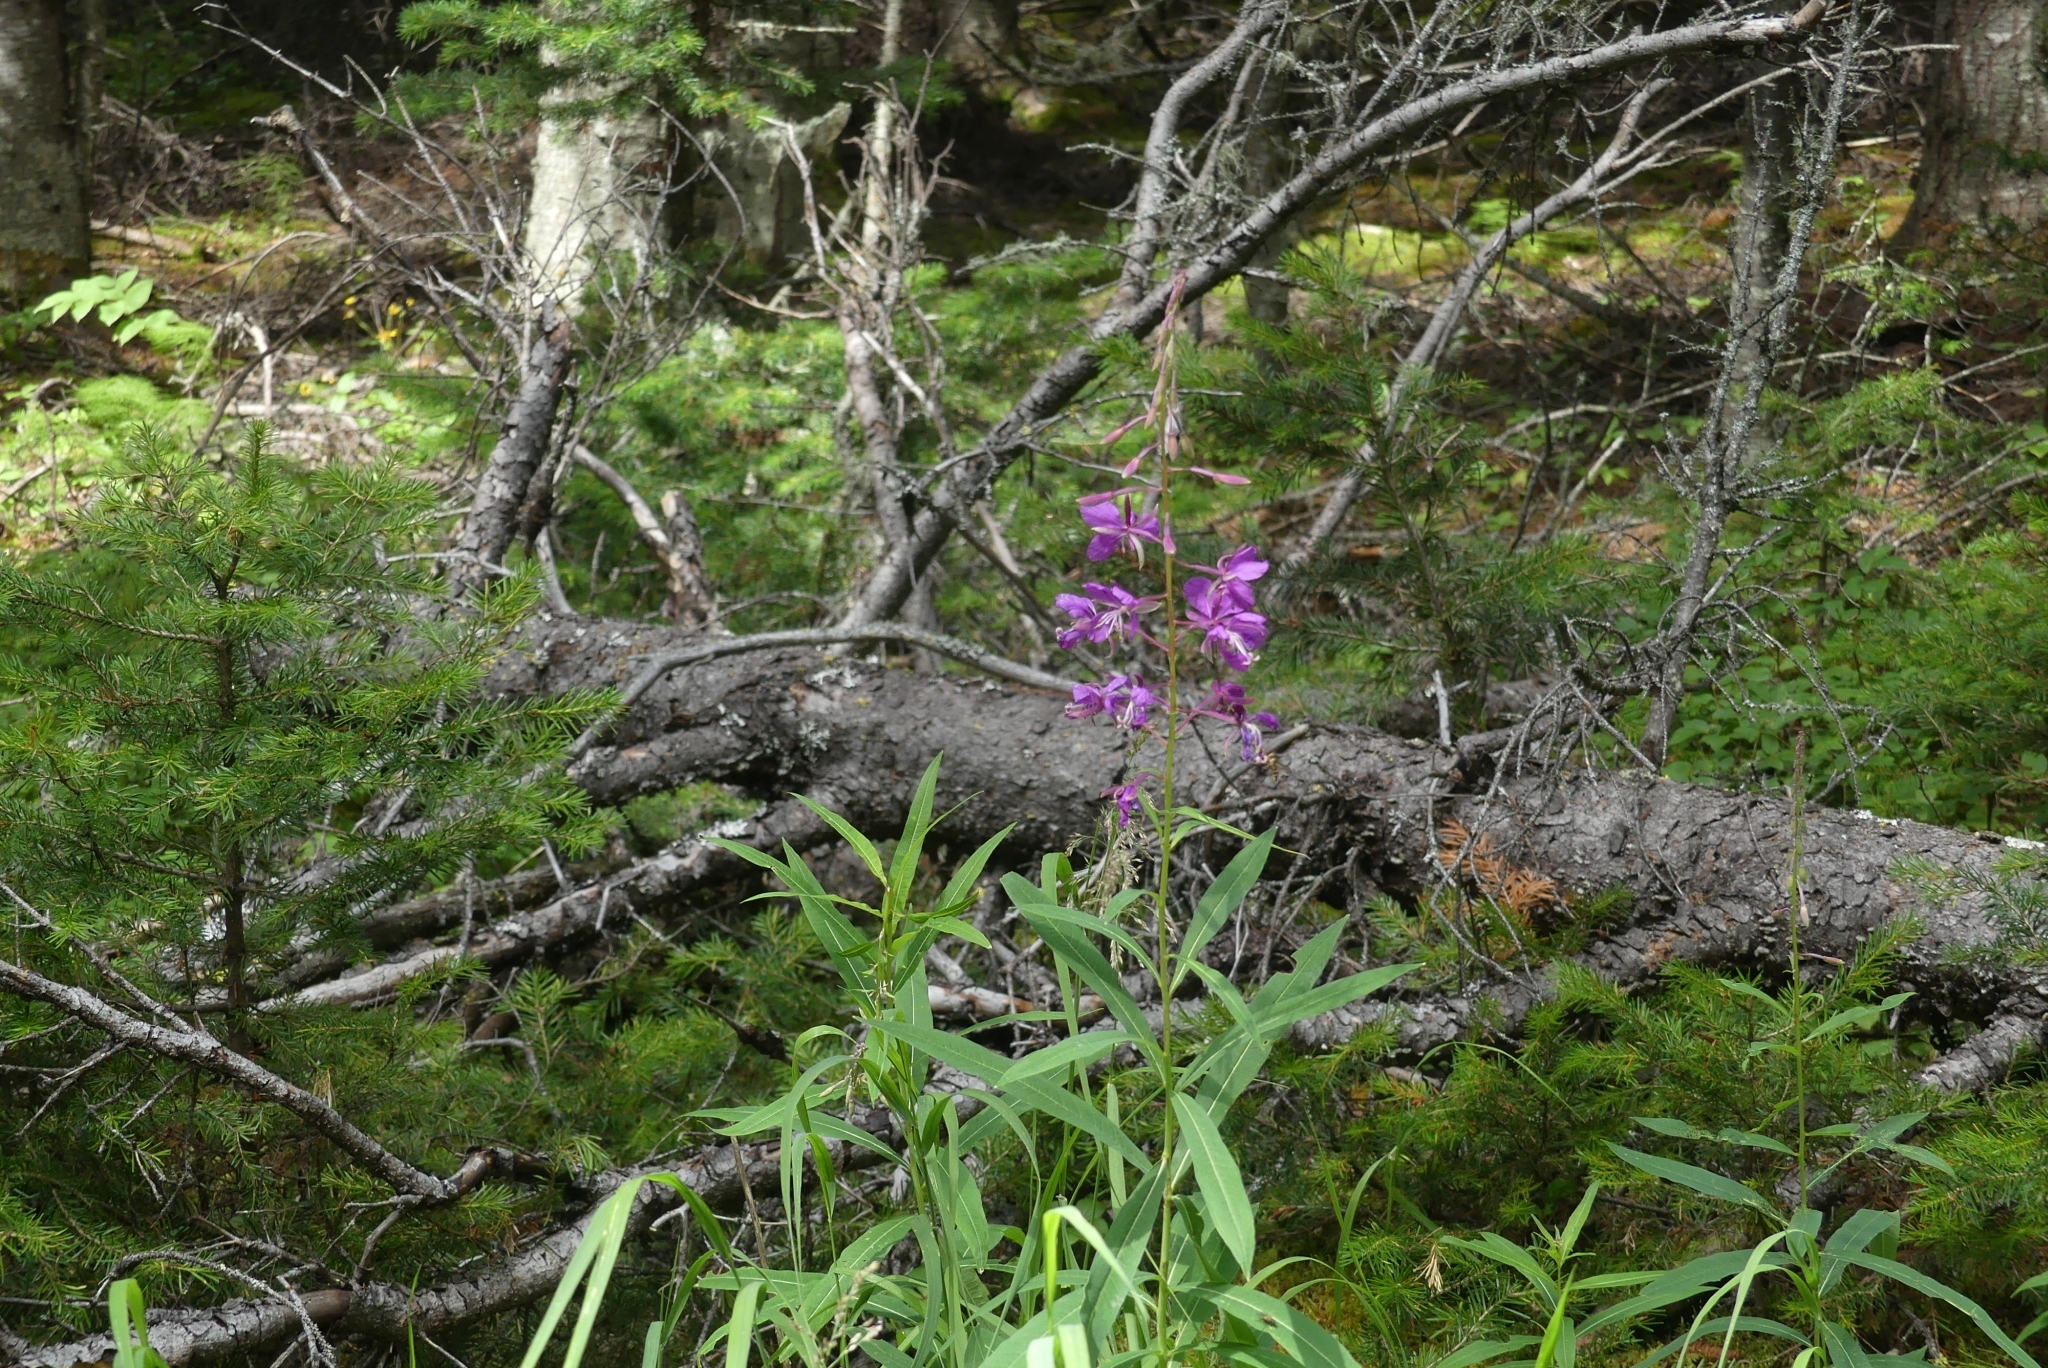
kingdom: Plantae
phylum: Tracheophyta
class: Magnoliopsida
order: Myrtales
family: Onagraceae
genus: Chamaenerion
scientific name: Chamaenerion angustifolium
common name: Fireweed
